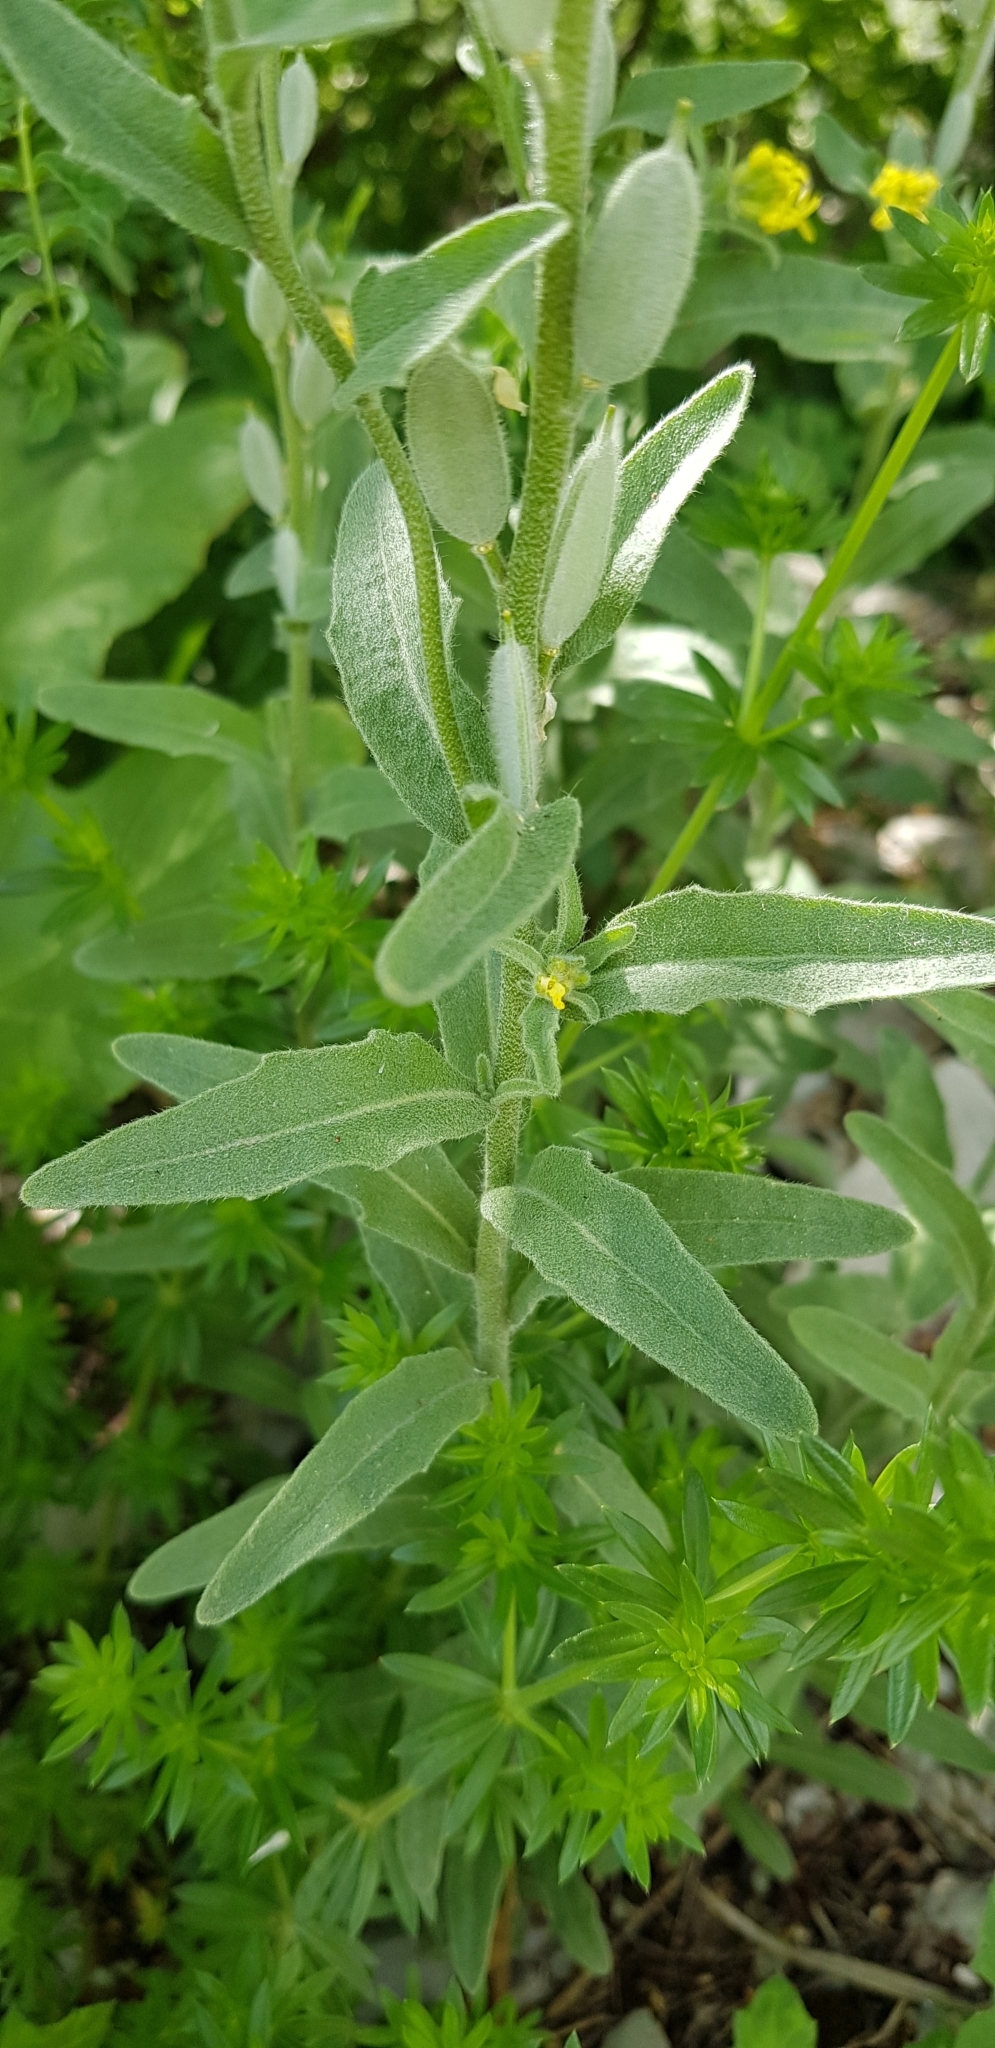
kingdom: Plantae
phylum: Tracheophyta
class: Magnoliopsida
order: Brassicales
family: Brassicaceae
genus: Fibigia
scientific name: Fibigia clypeata
